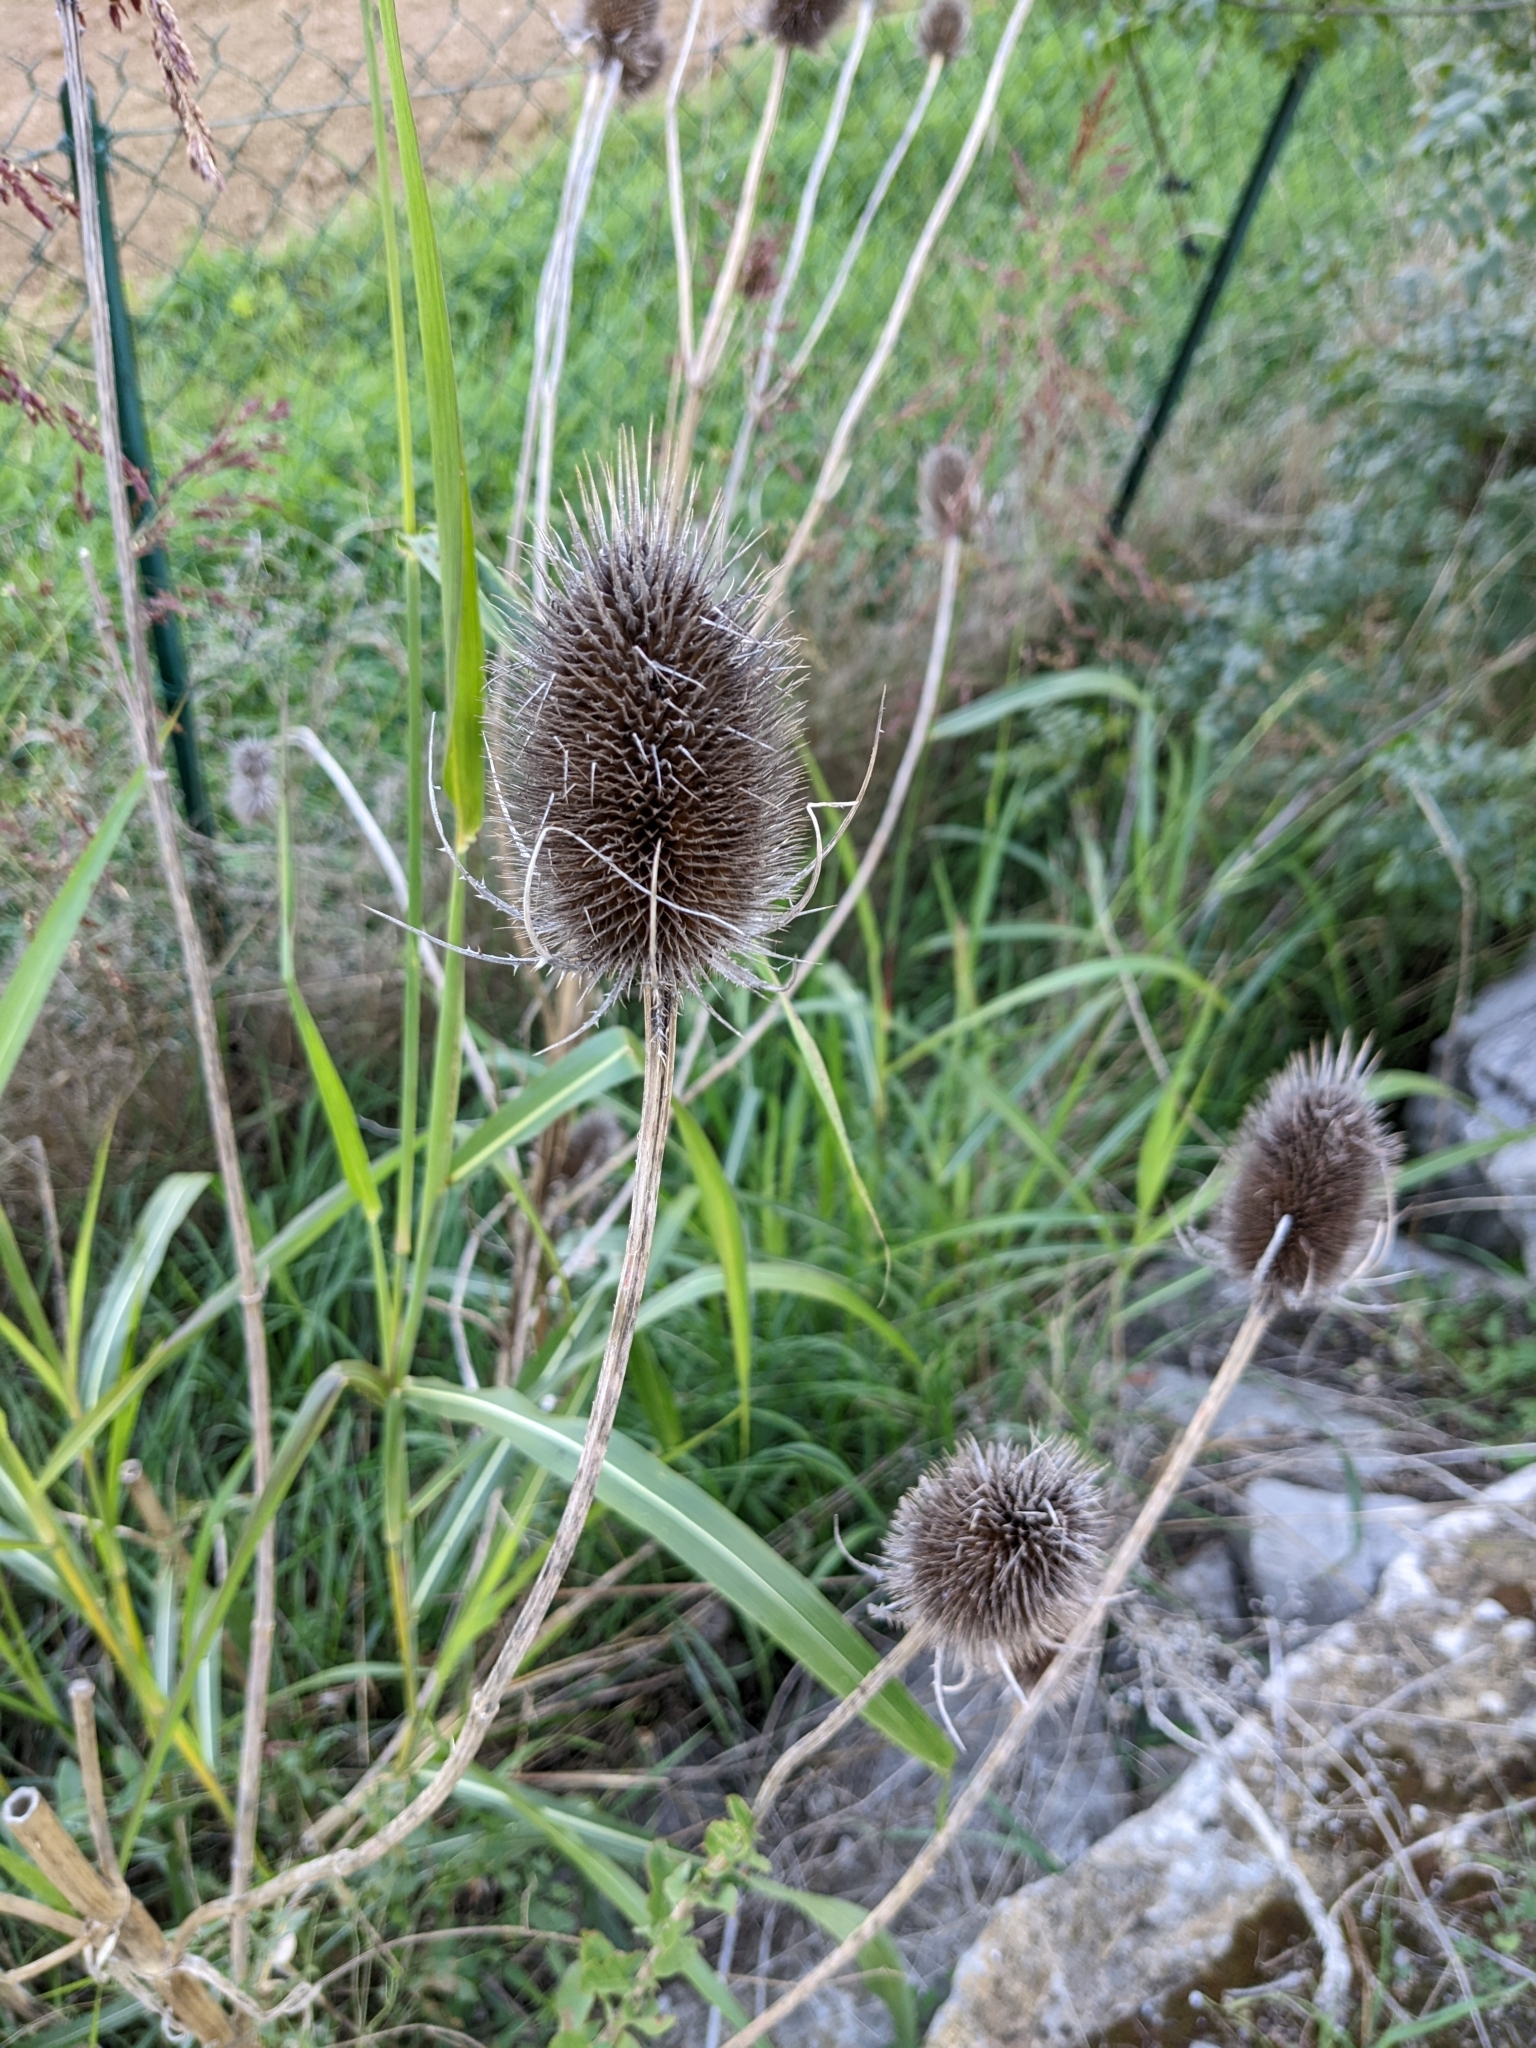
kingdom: Plantae
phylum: Tracheophyta
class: Magnoliopsida
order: Dipsacales
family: Caprifoliaceae
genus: Dipsacus
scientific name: Dipsacus fullonum
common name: Teasel
